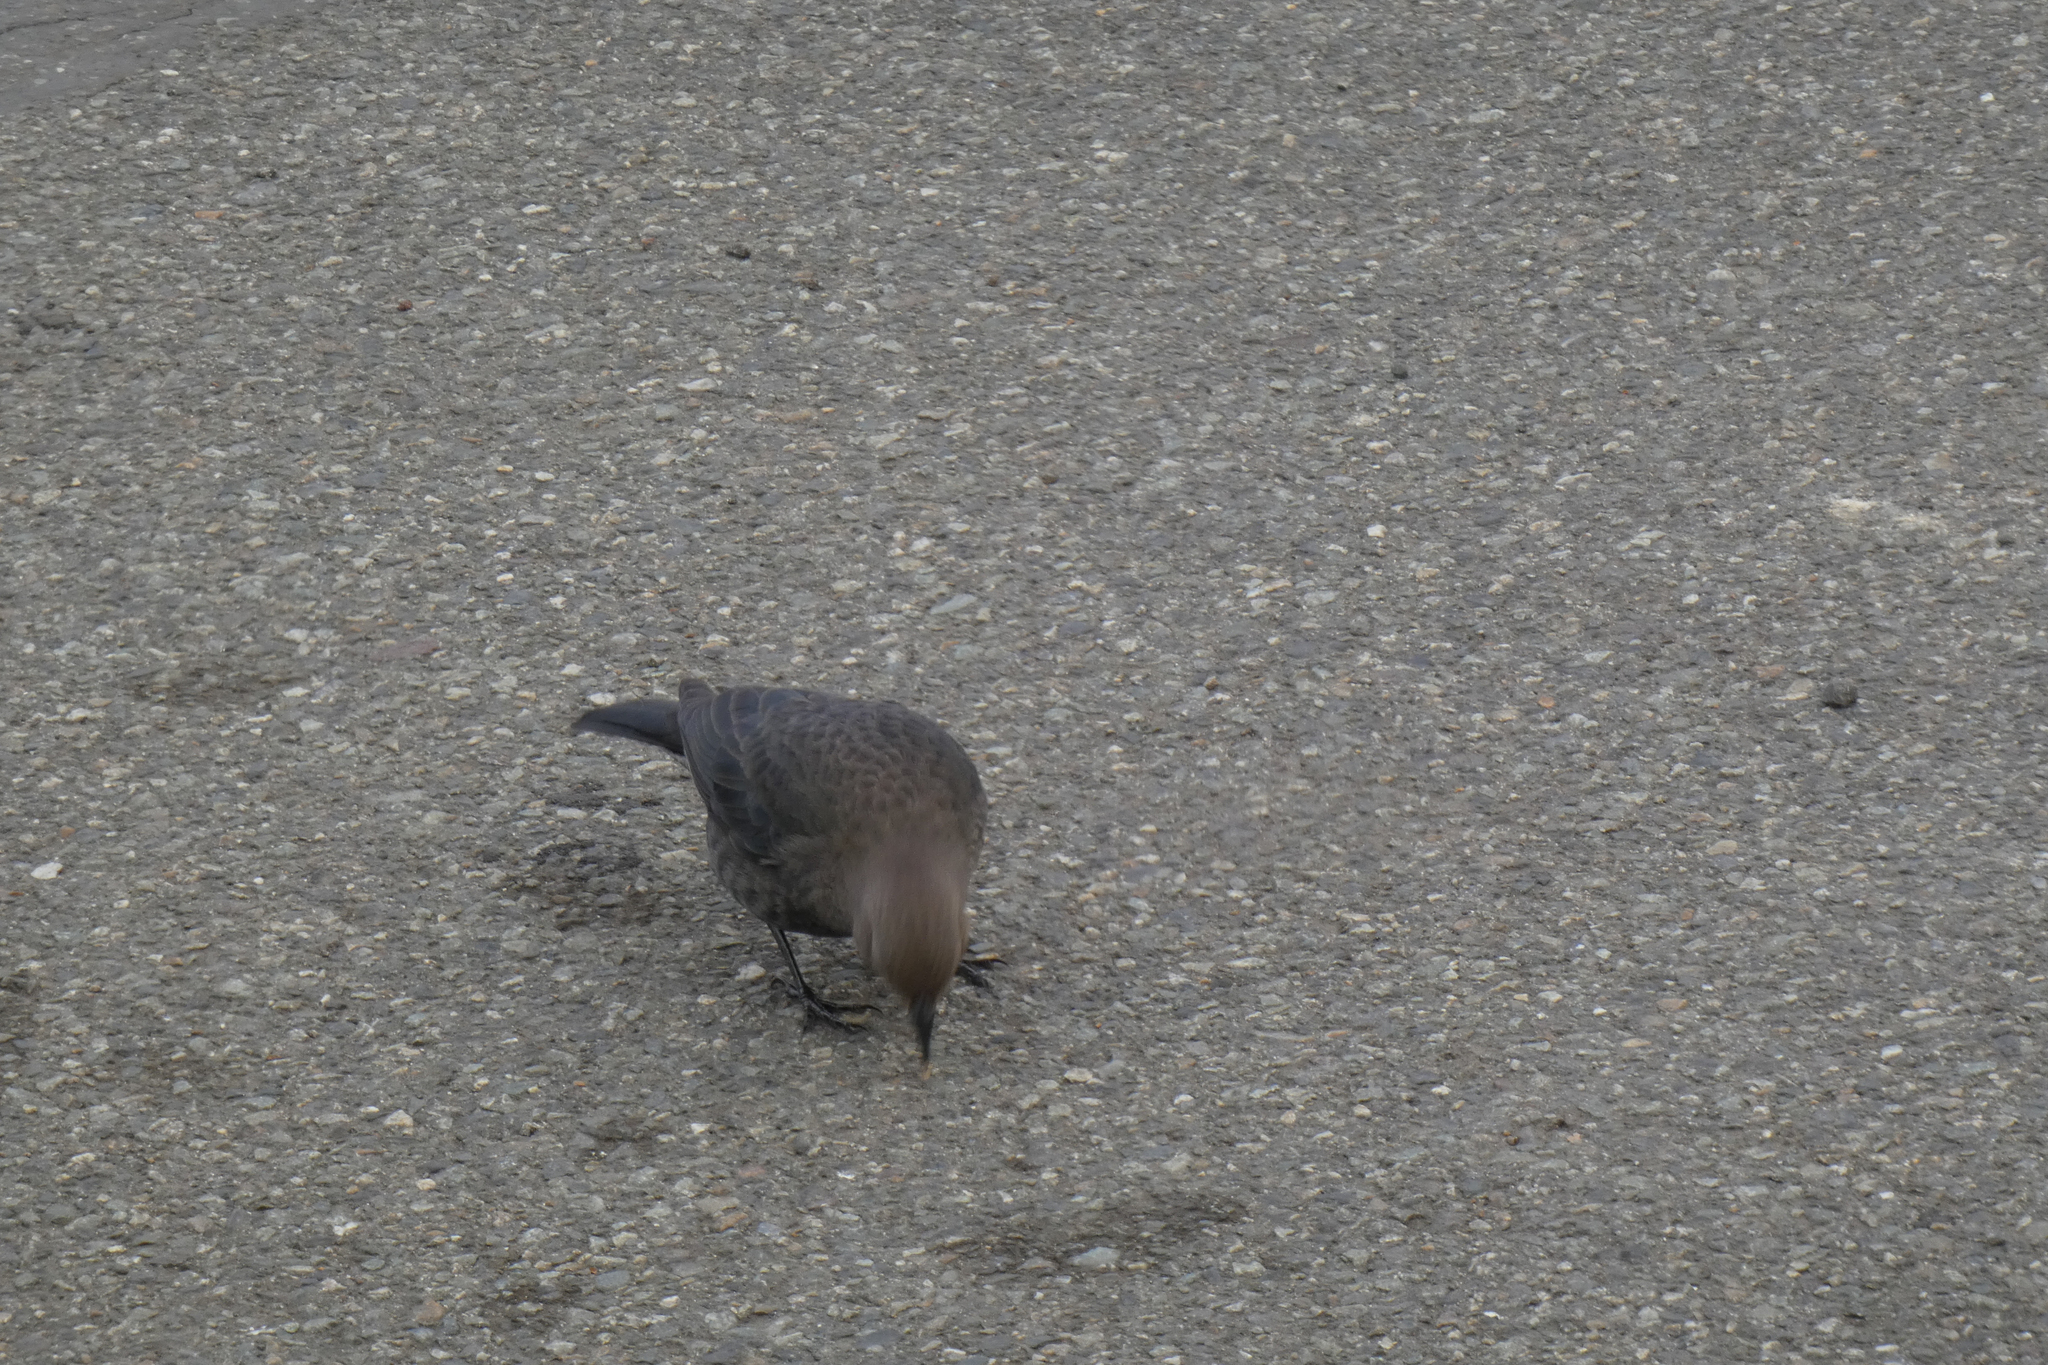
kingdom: Animalia
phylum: Chordata
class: Aves
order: Passeriformes
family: Icteridae
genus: Euphagus
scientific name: Euphagus cyanocephalus
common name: Brewer's blackbird
